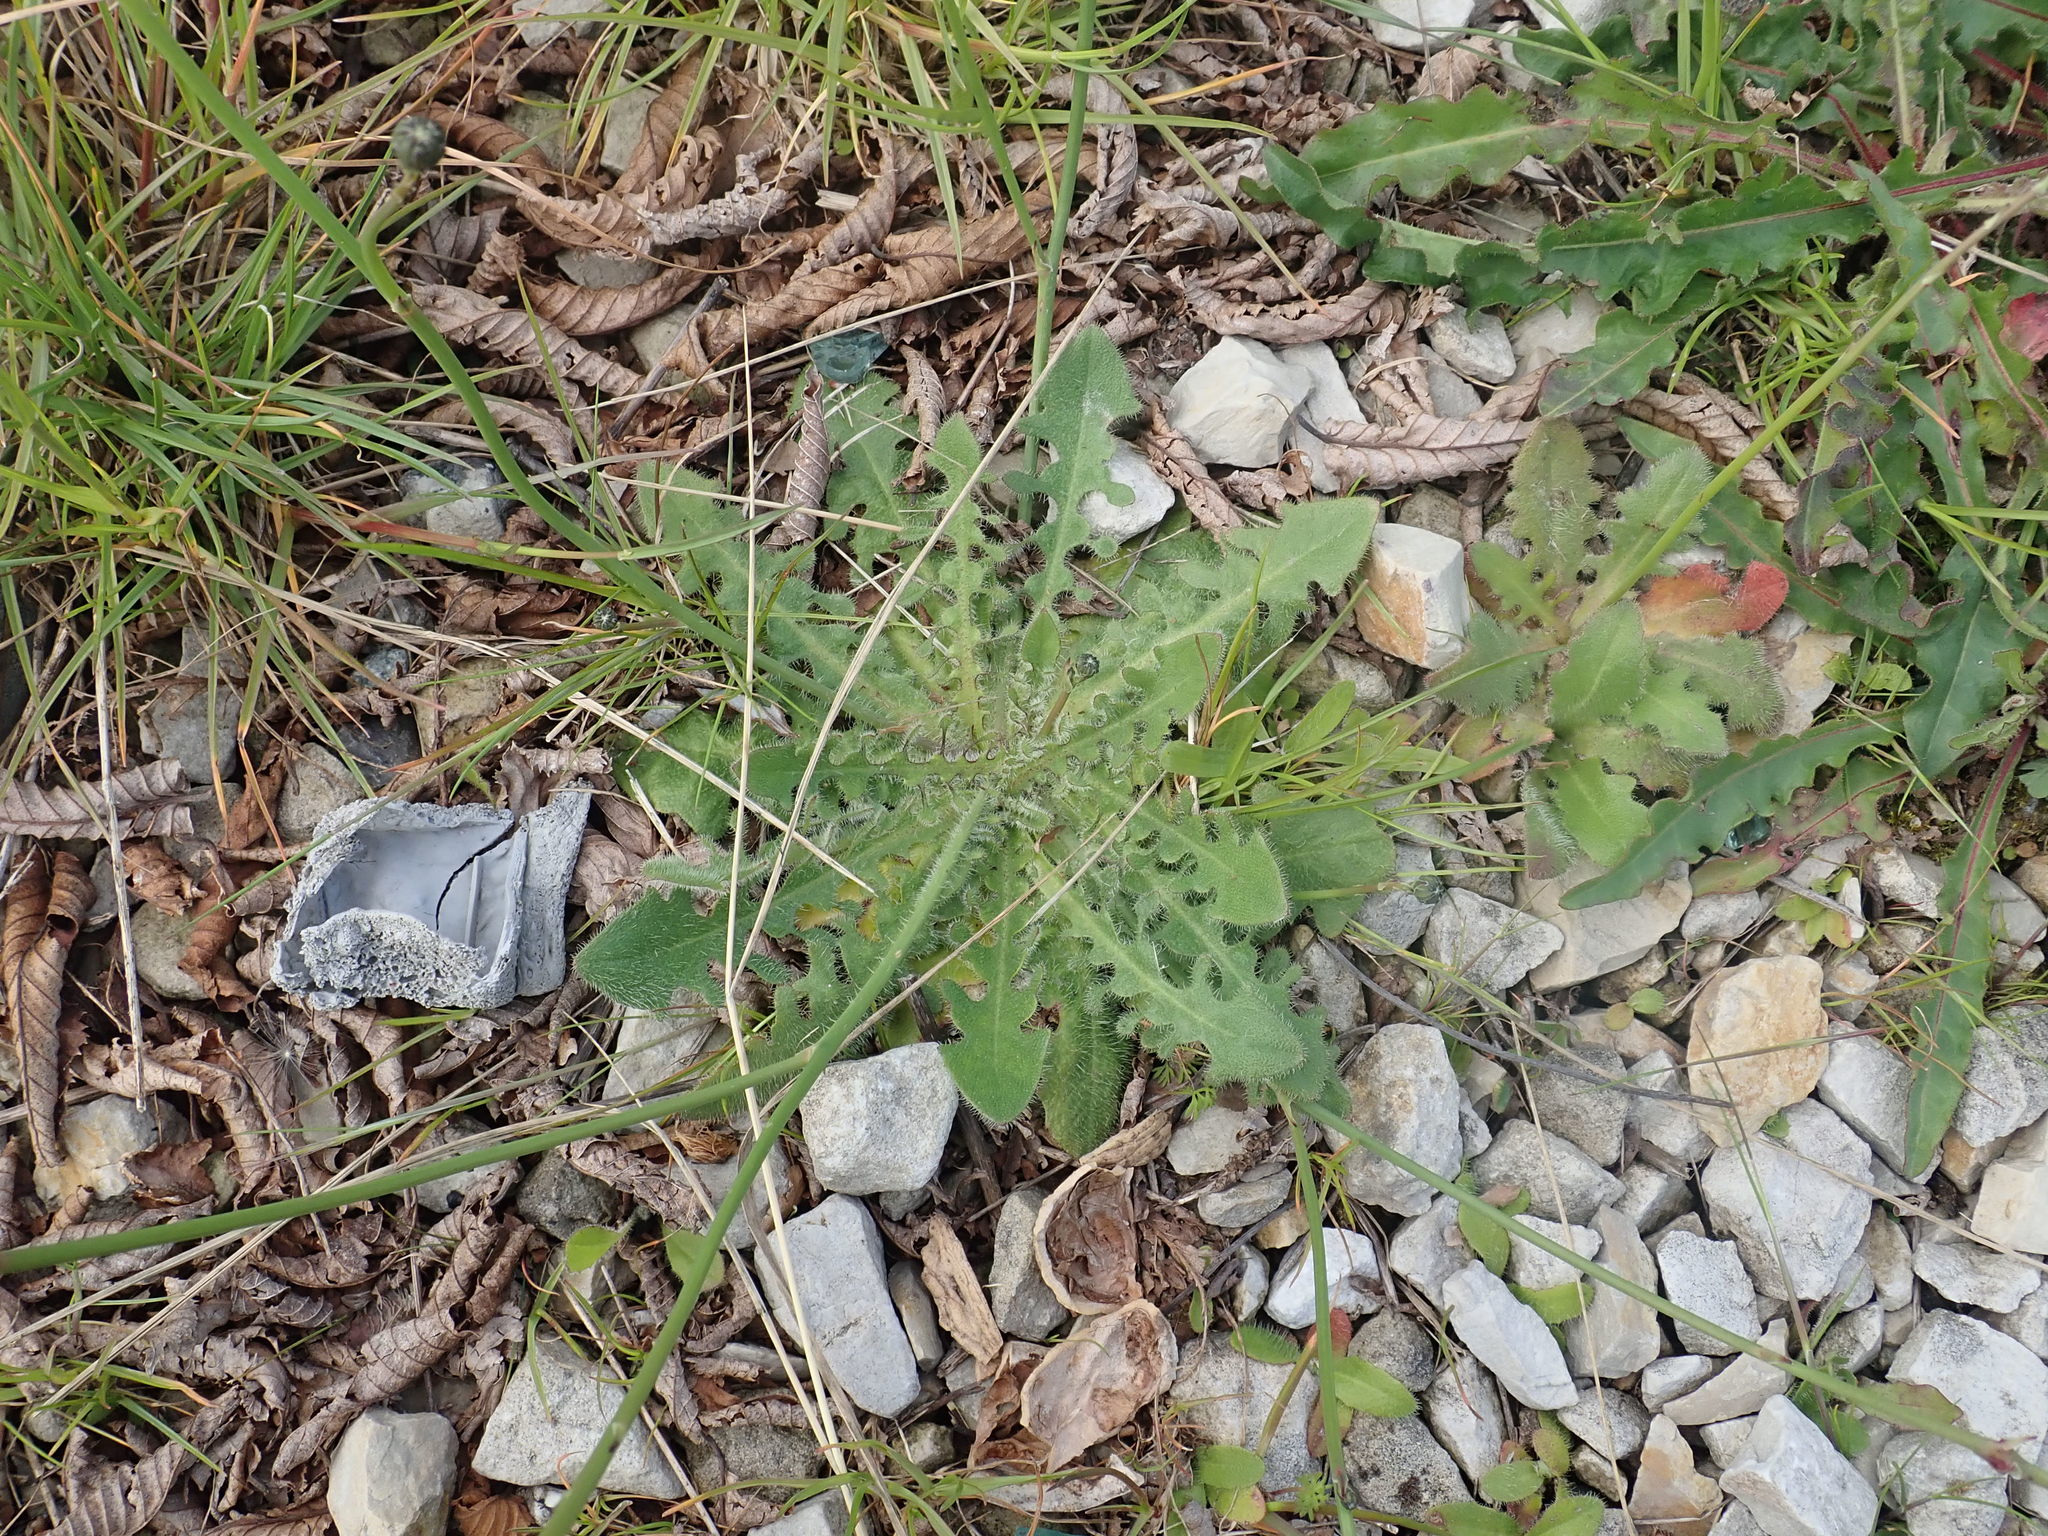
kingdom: Plantae
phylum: Tracheophyta
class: Magnoliopsida
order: Asterales
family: Asteraceae
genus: Hypochaeris
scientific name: Hypochaeris radicata
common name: Flatweed
